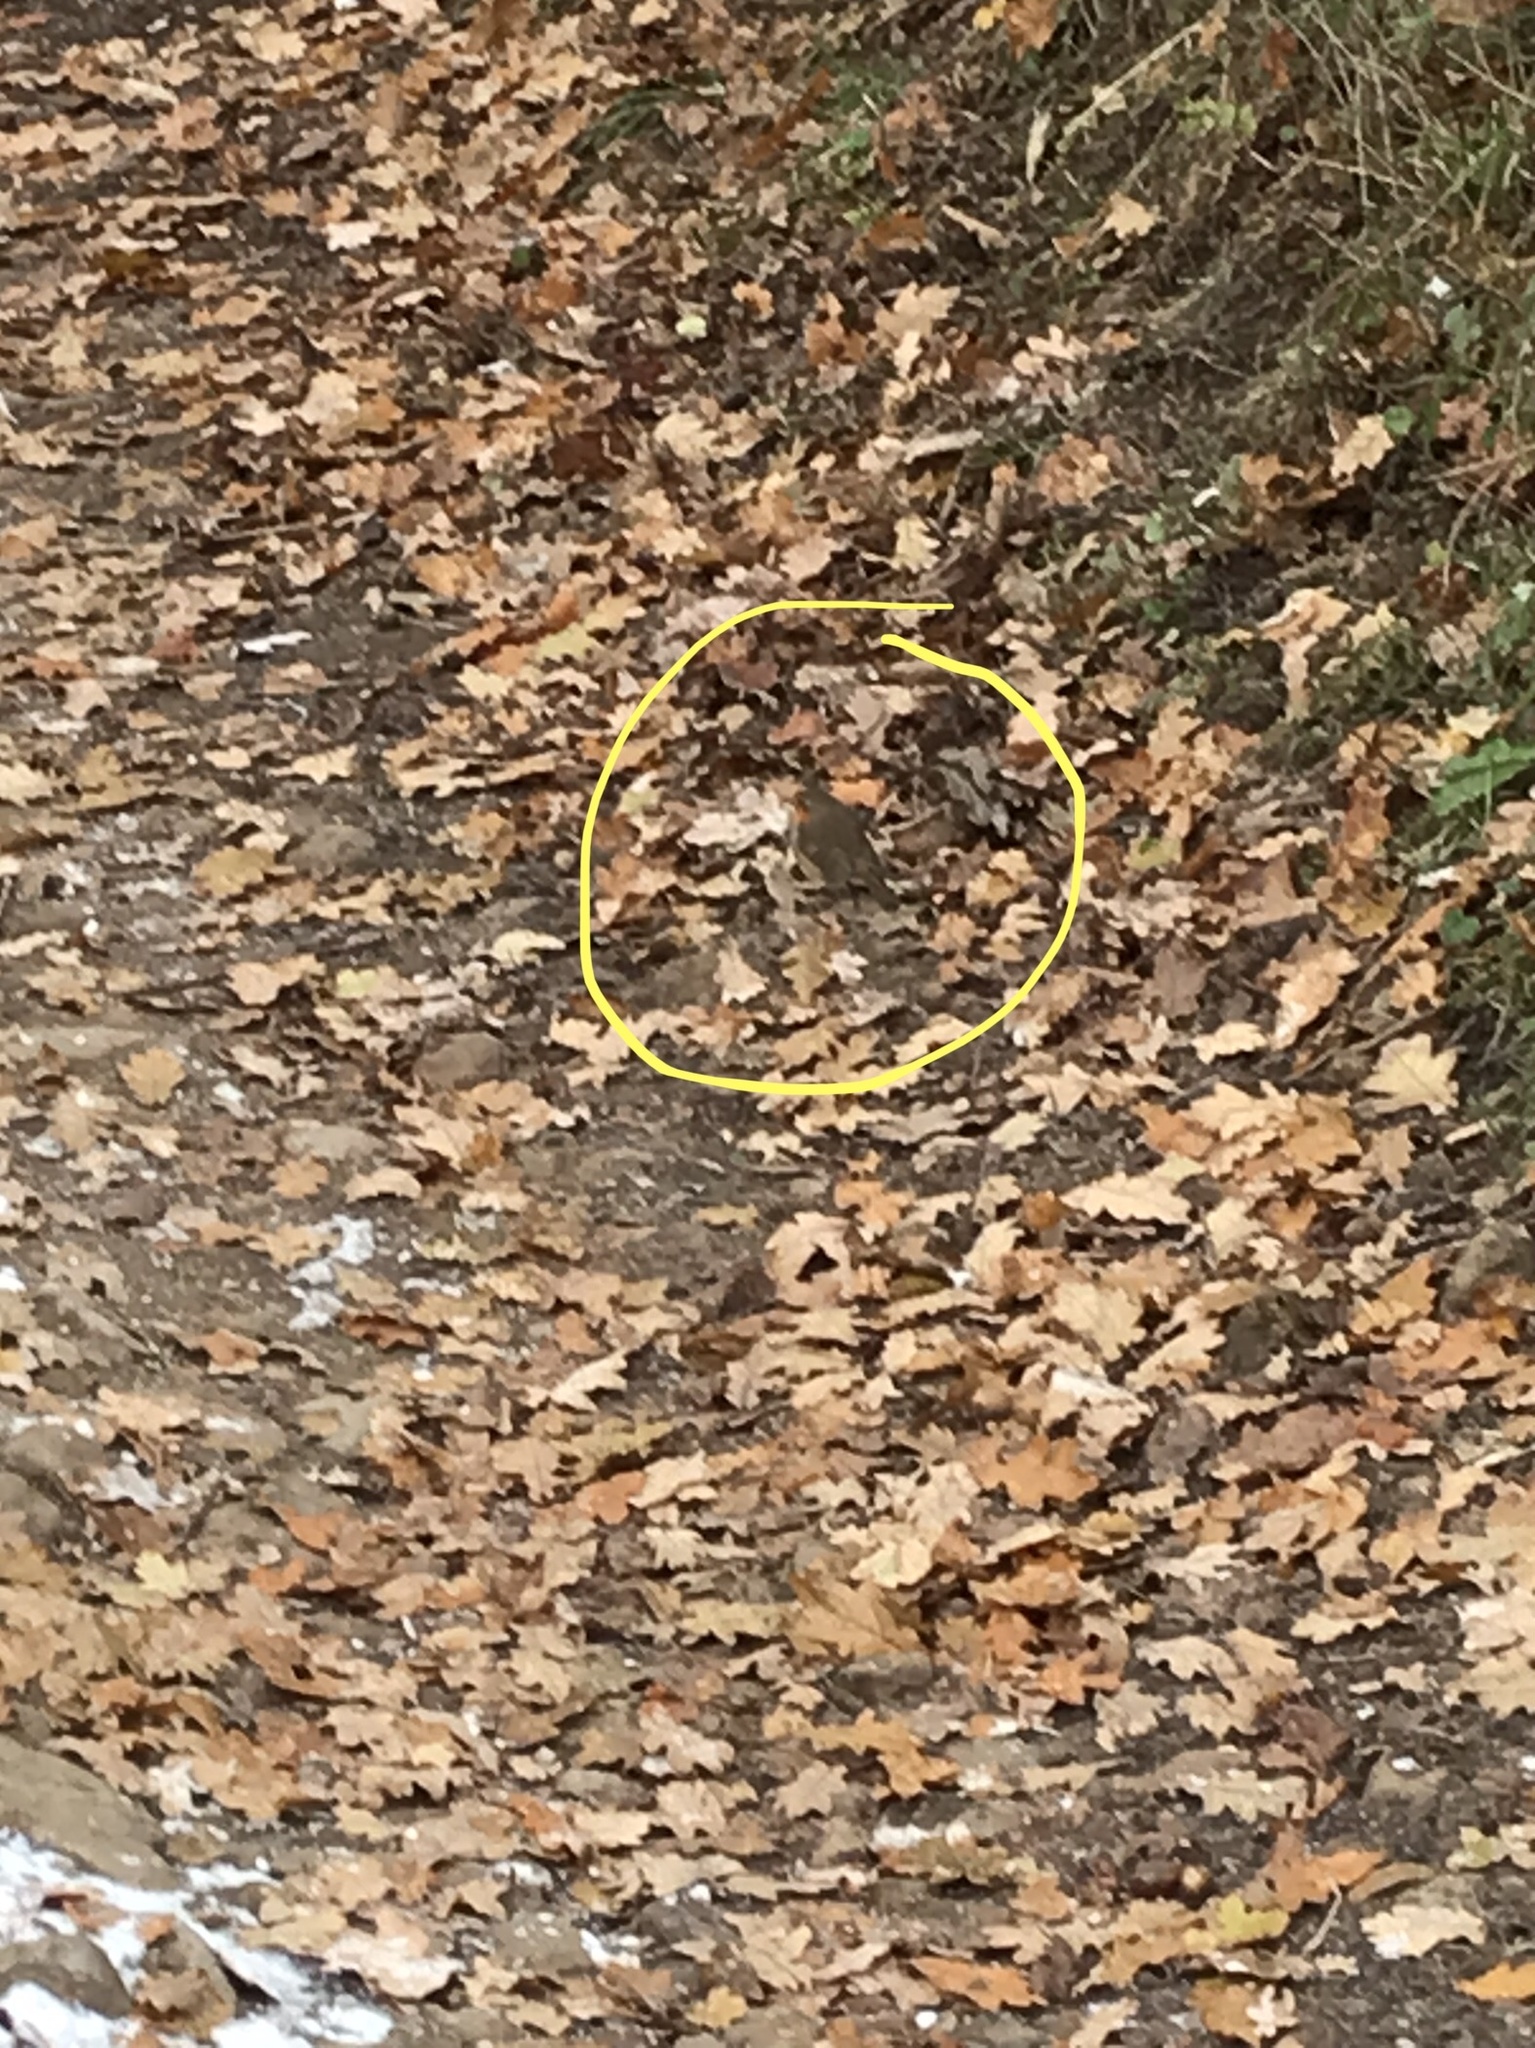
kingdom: Animalia
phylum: Chordata
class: Aves
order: Passeriformes
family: Muscicapidae
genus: Erithacus
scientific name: Erithacus rubecula
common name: European robin
